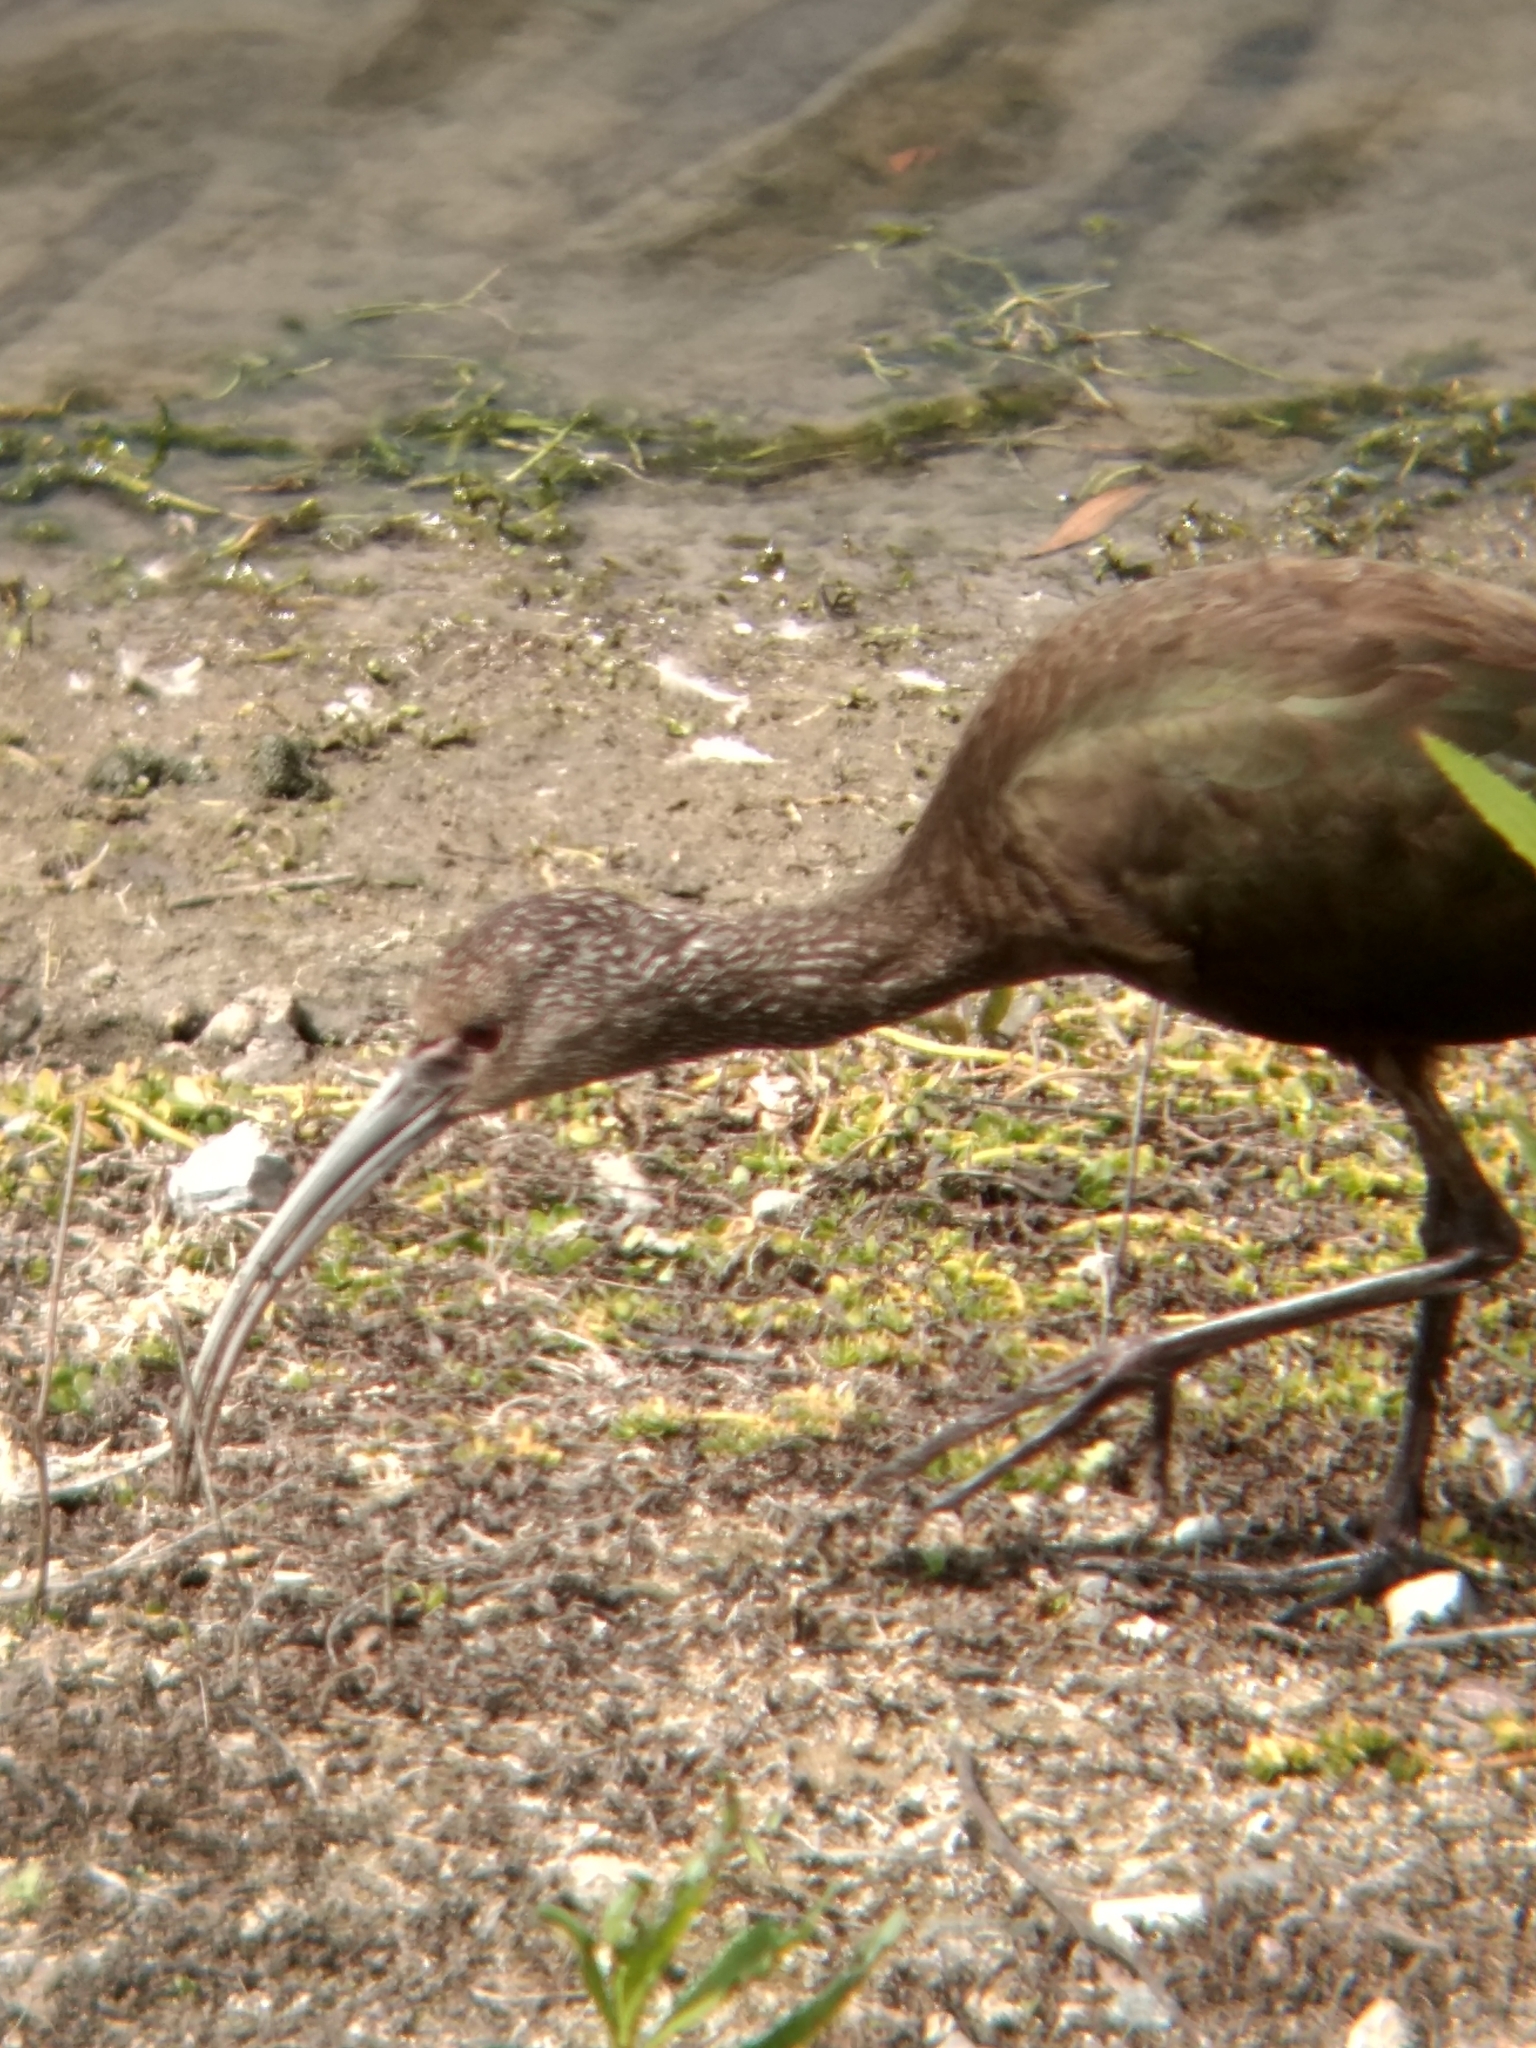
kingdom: Animalia
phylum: Chordata
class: Aves
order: Pelecaniformes
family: Threskiornithidae
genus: Plegadis
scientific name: Plegadis chihi
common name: White-faced ibis
